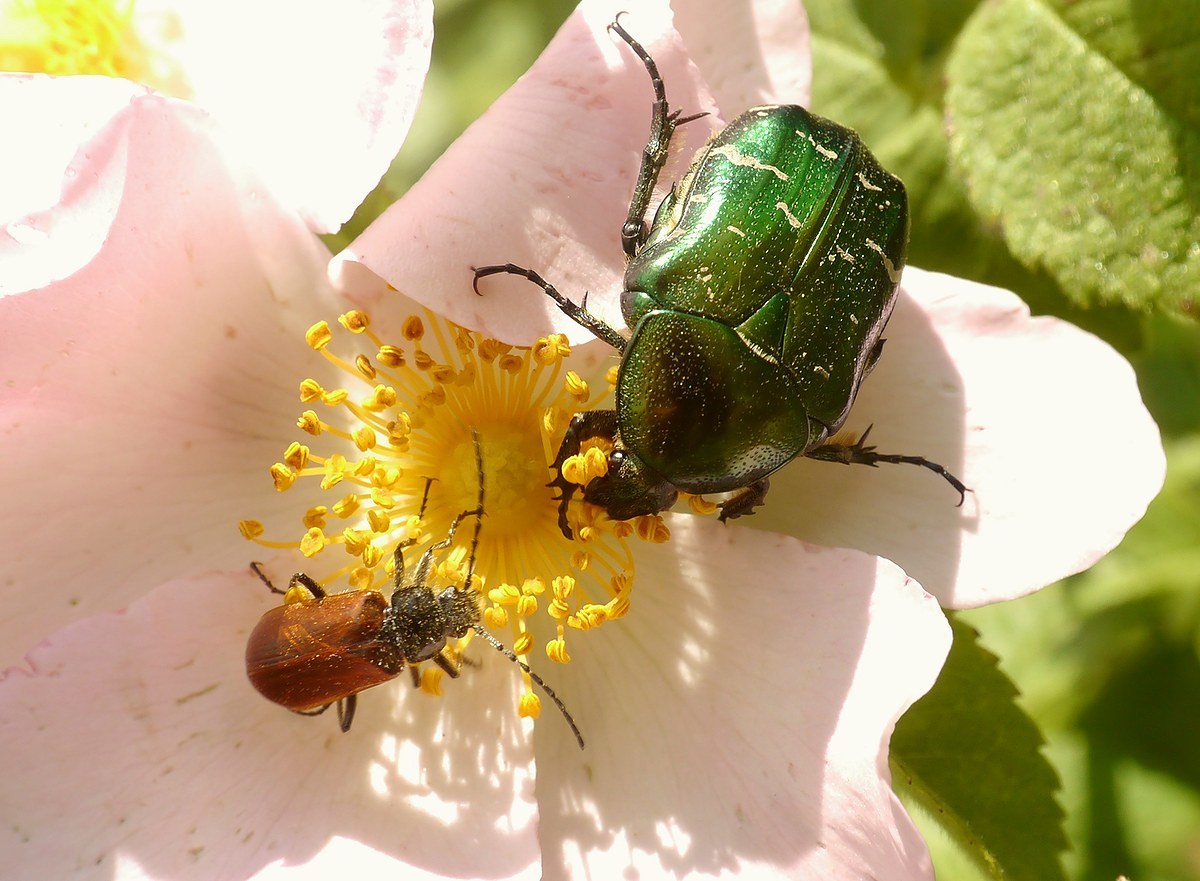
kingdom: Animalia
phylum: Arthropoda
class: Insecta
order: Coleoptera
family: Scarabaeidae
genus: Cetonia
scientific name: Cetonia aurata
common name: Rose chafer
